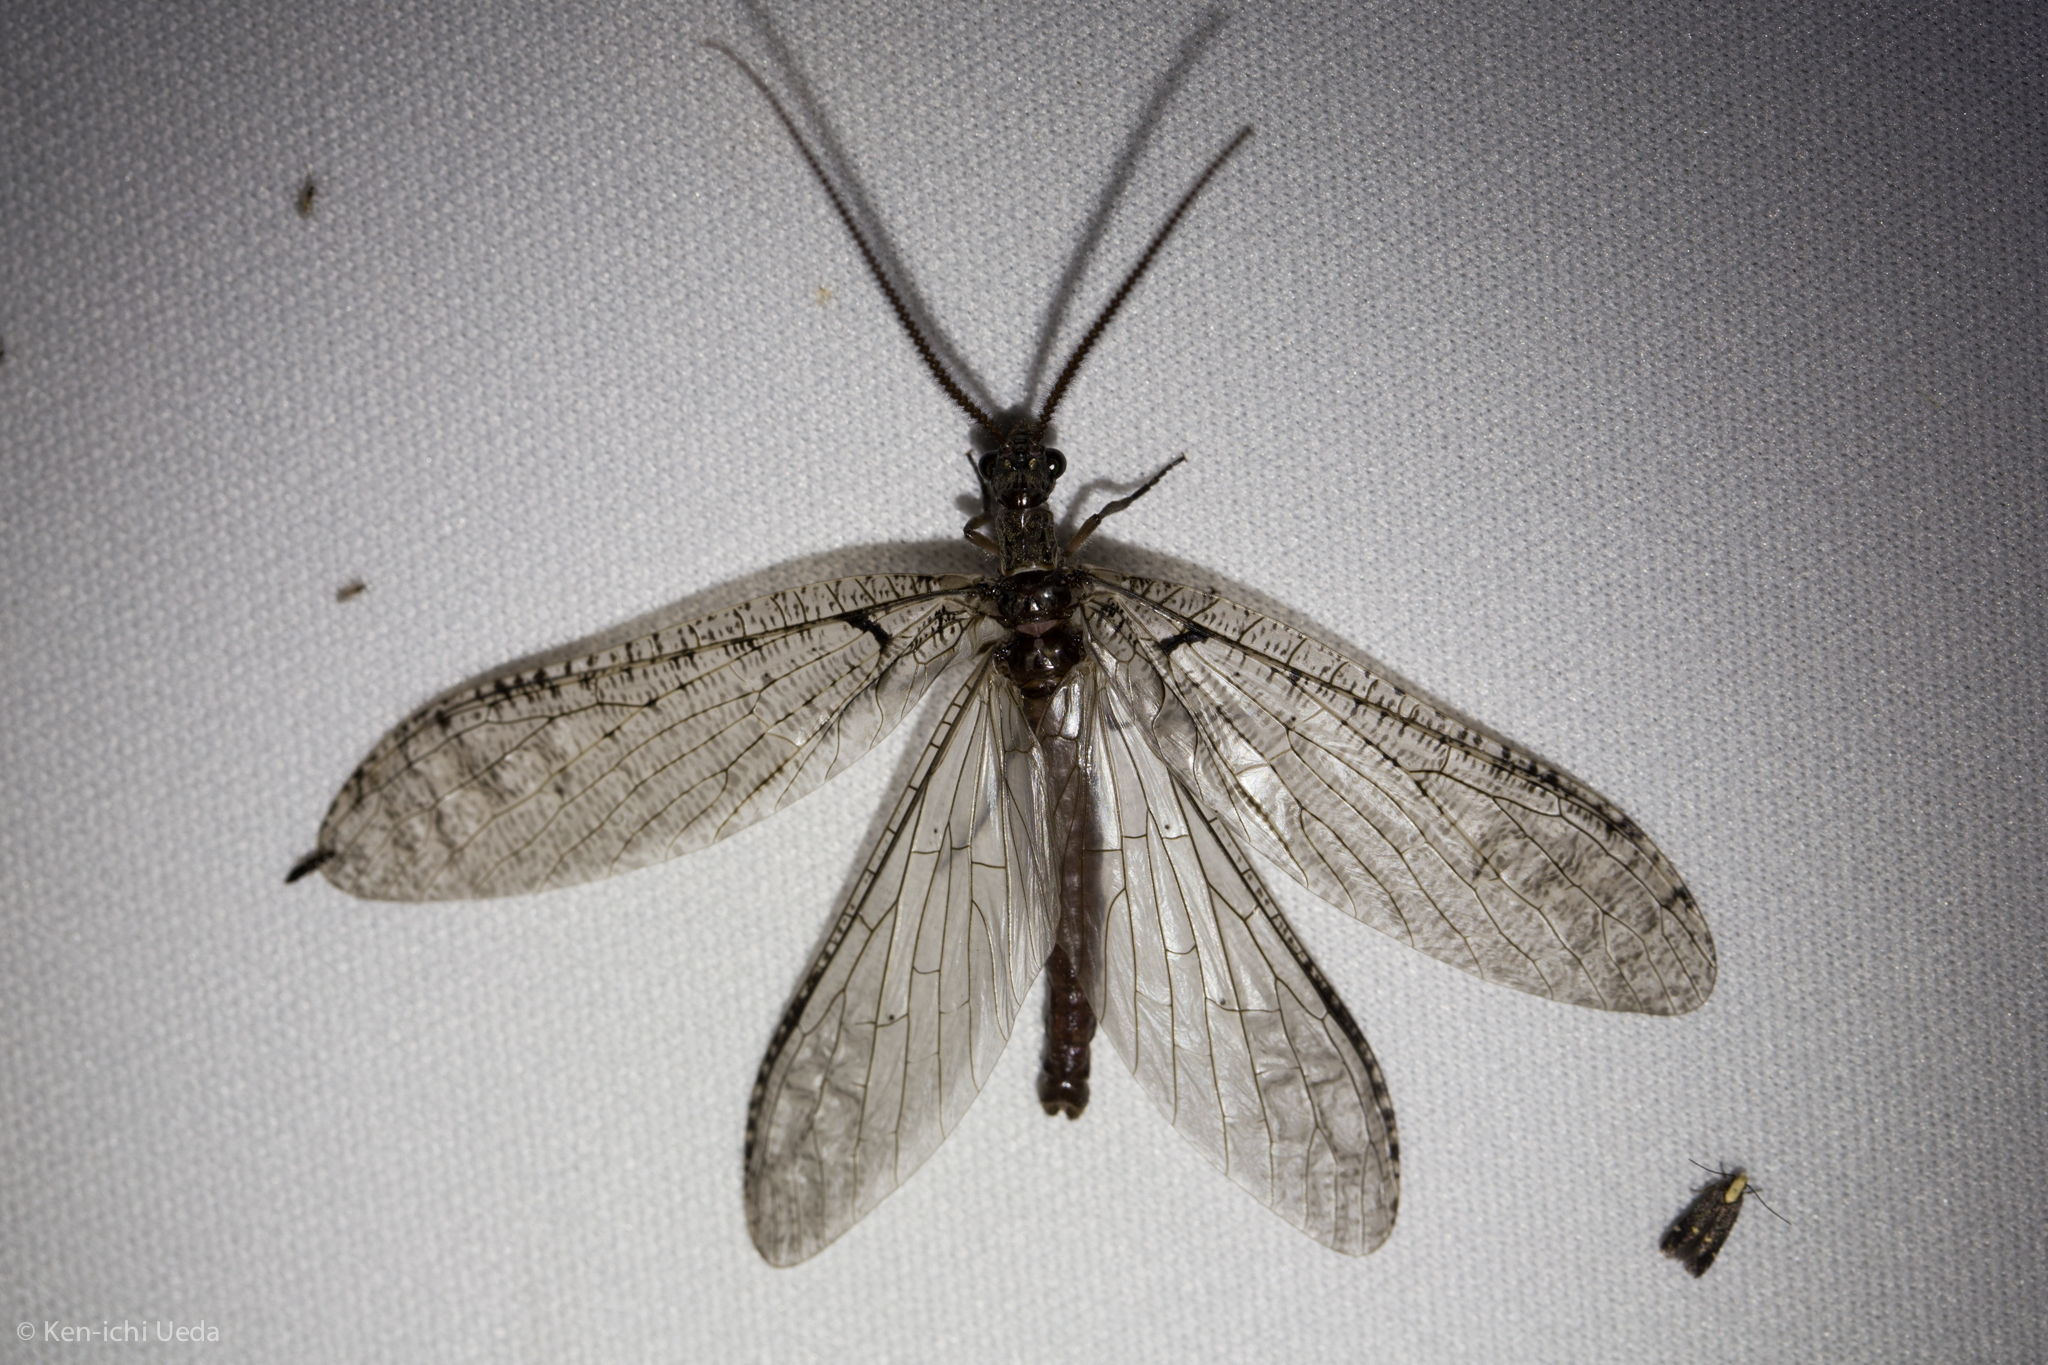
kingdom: Animalia
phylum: Arthropoda
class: Insecta
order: Megaloptera
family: Corydalidae
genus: Neohermes
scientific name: Neohermes filicornis
